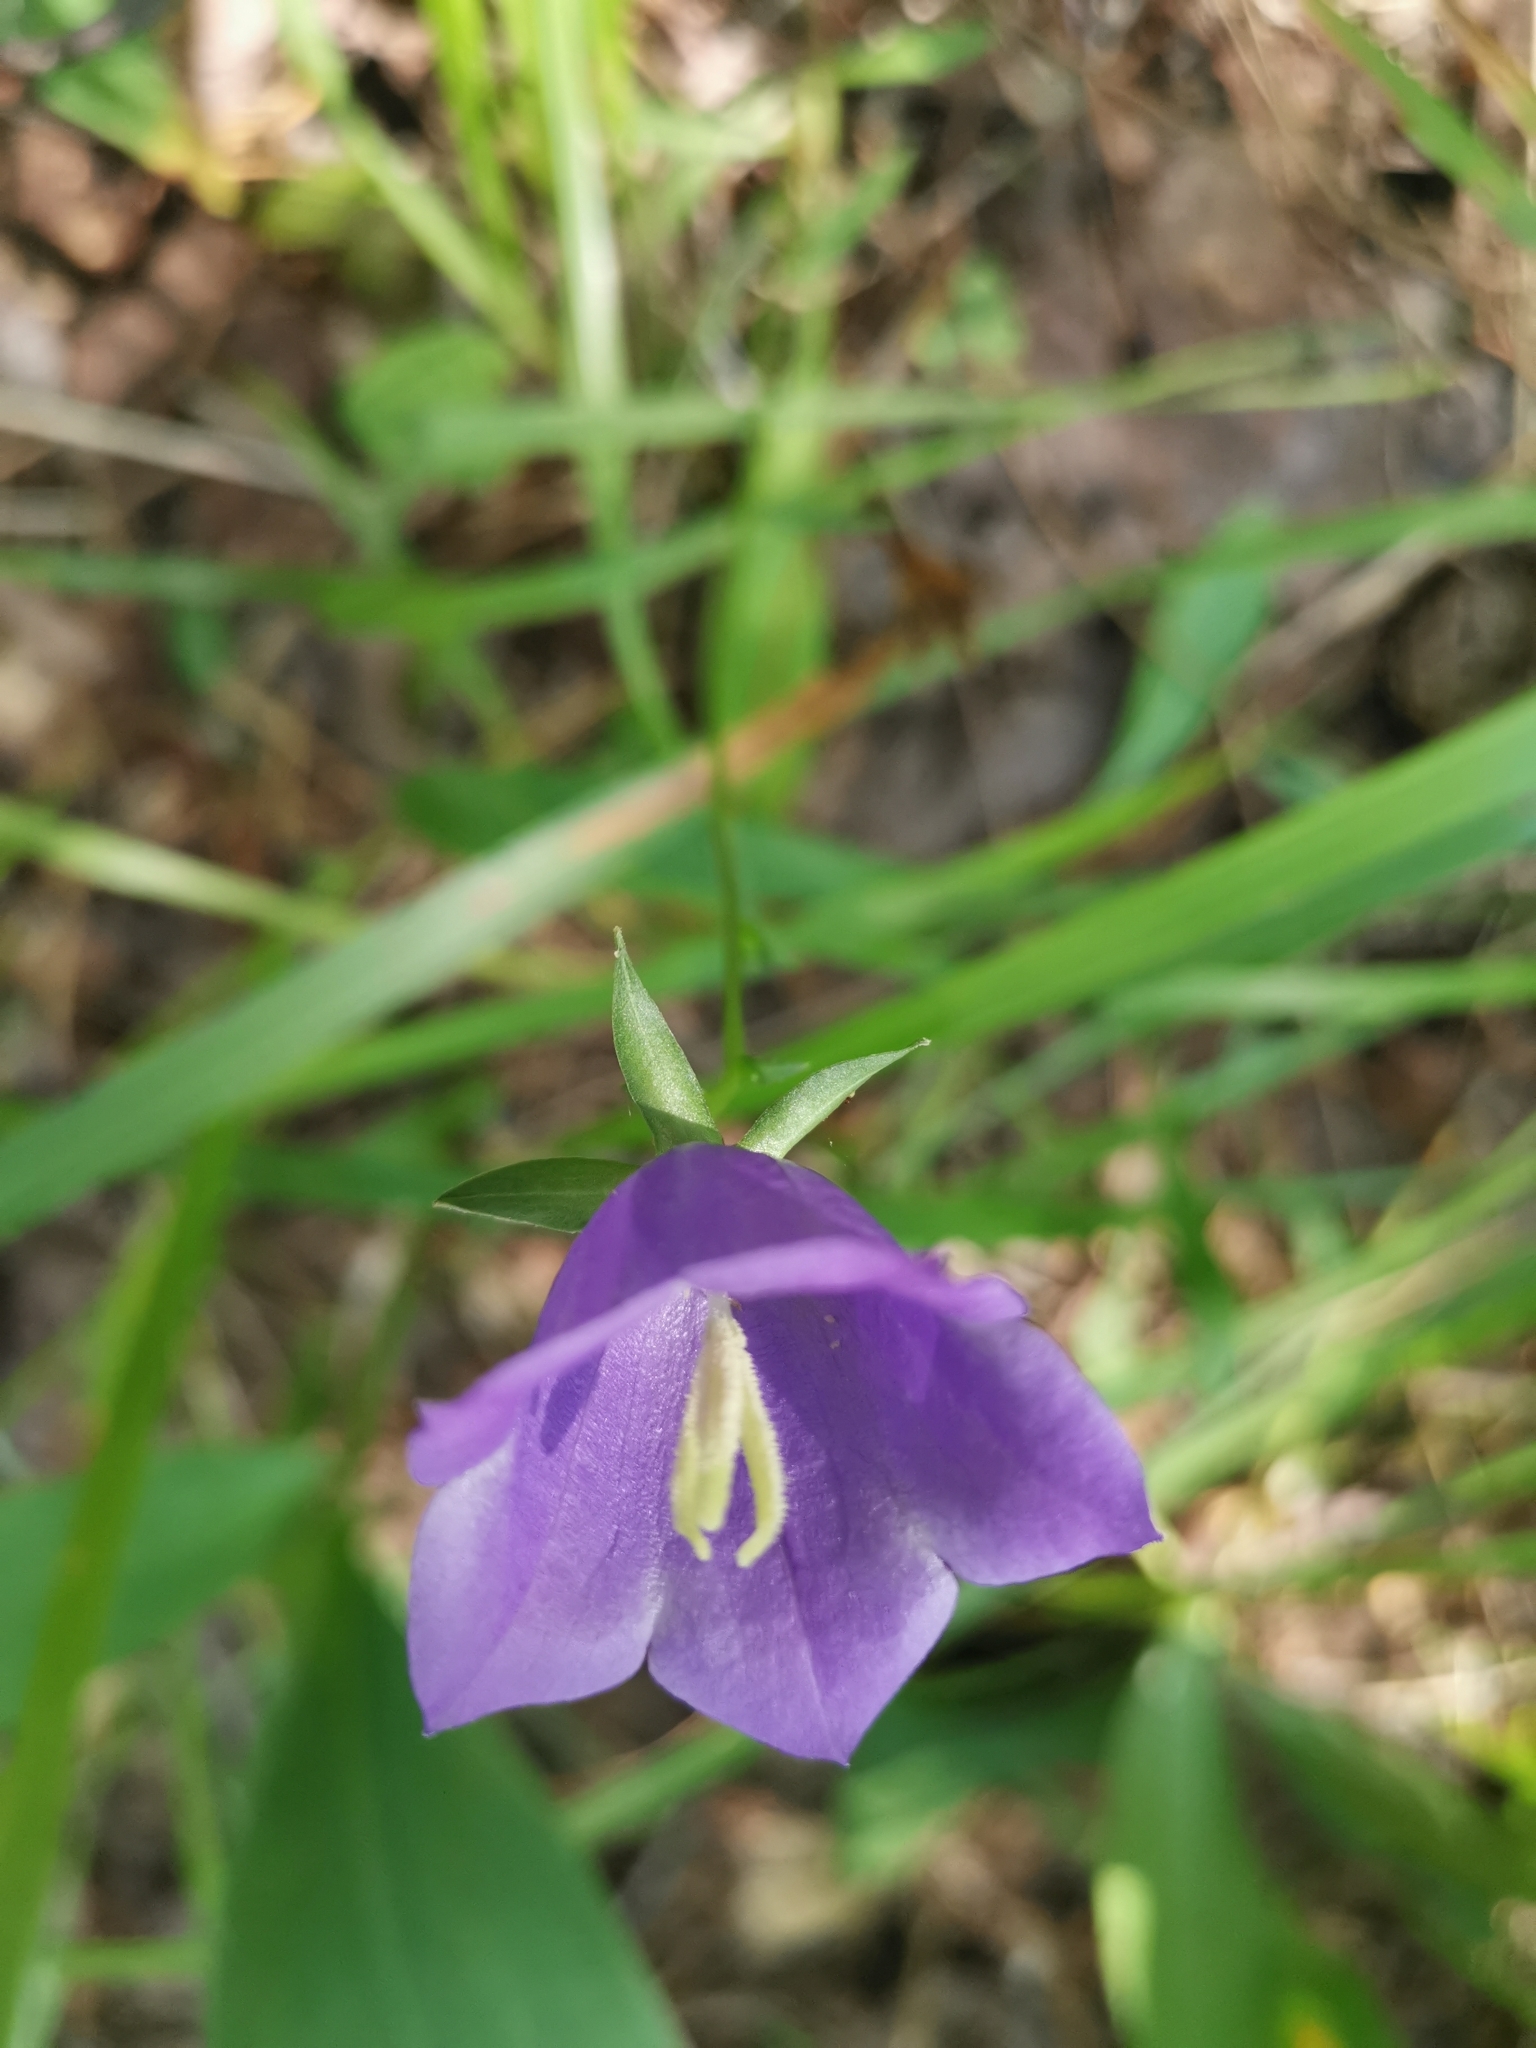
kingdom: Plantae
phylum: Tracheophyta
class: Magnoliopsida
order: Asterales
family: Campanulaceae
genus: Campanula
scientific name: Campanula persicifolia
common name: Peach-leaved bellflower
